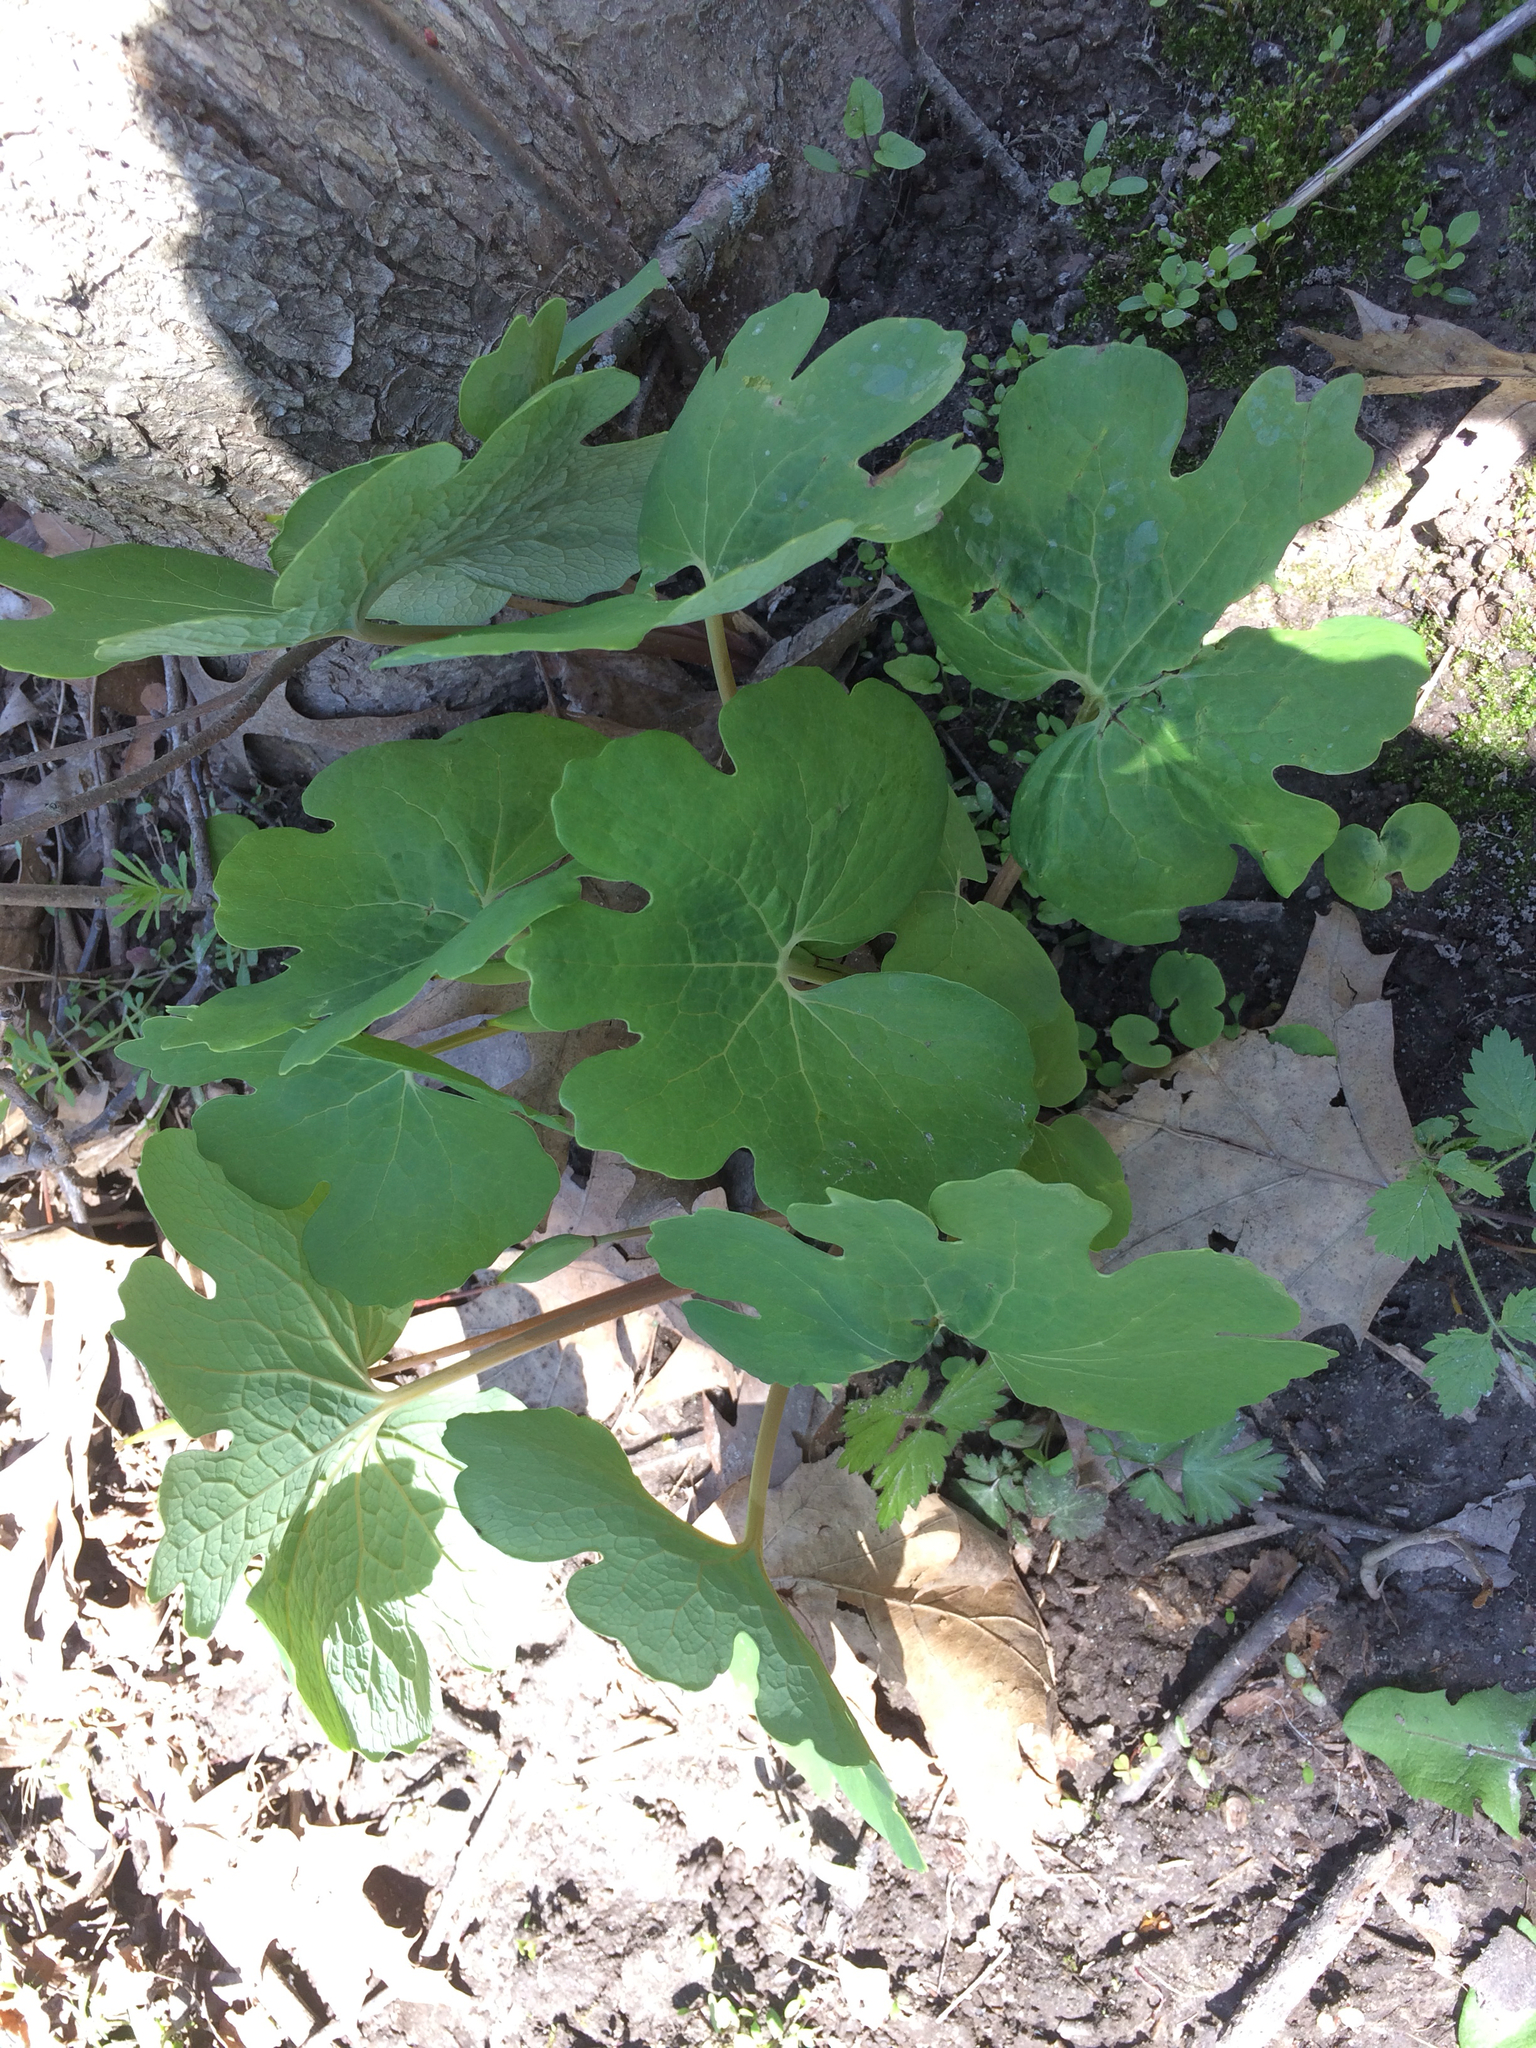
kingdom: Plantae
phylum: Tracheophyta
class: Magnoliopsida
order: Ranunculales
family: Papaveraceae
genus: Sanguinaria
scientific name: Sanguinaria canadensis
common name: Bloodroot
